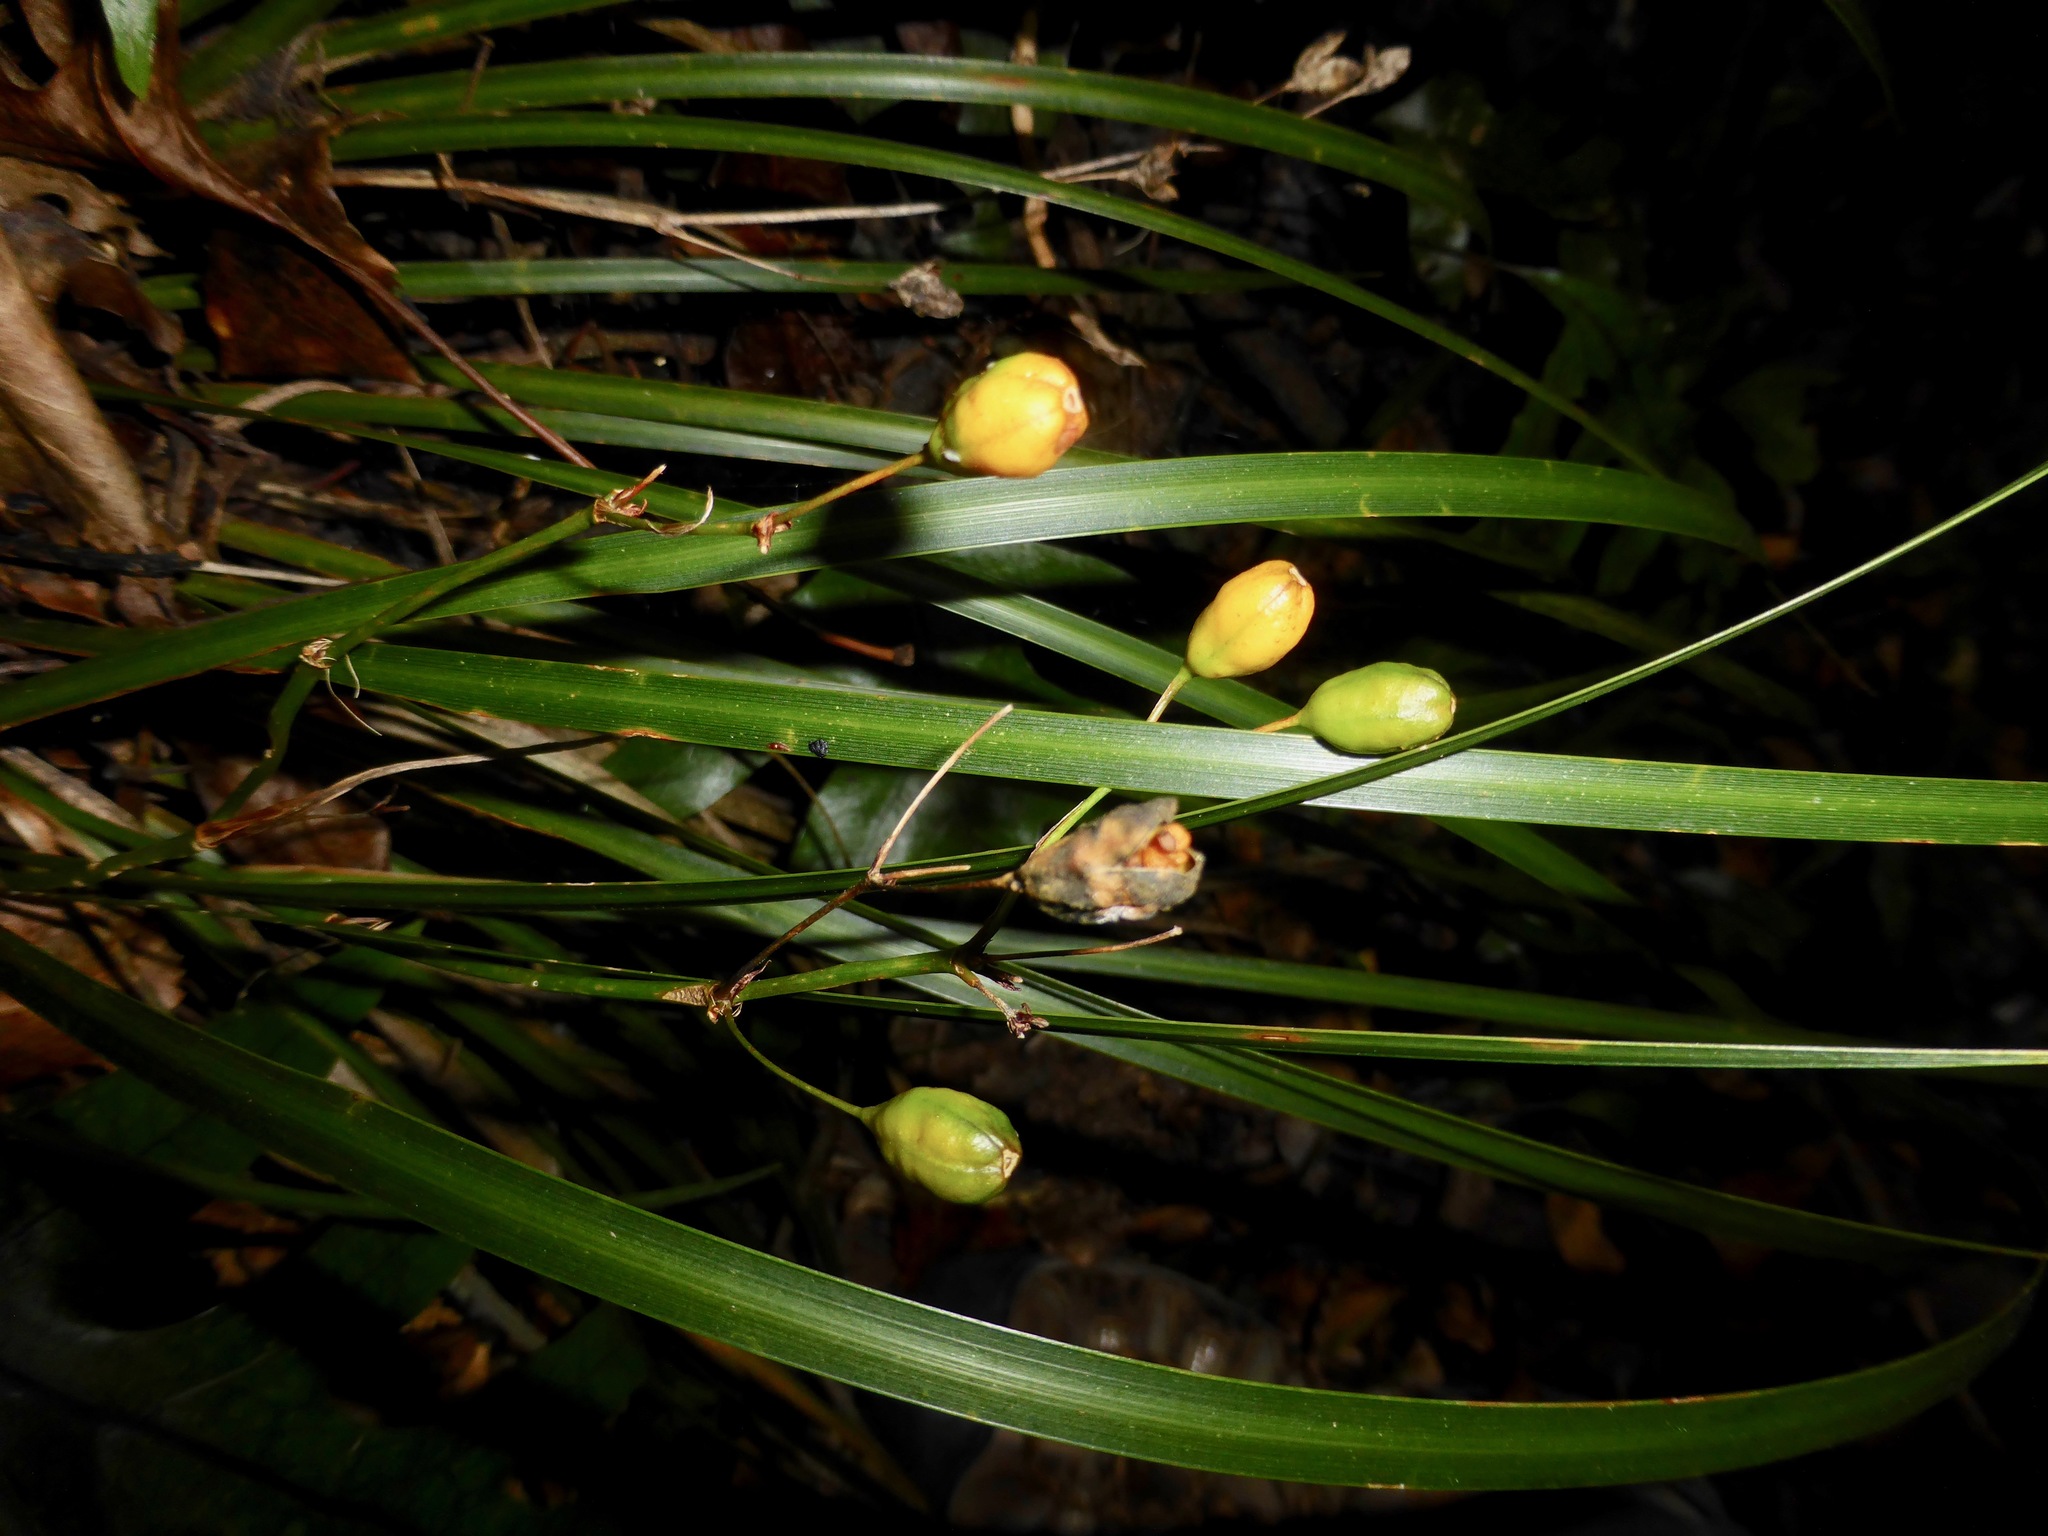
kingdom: Plantae
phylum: Tracheophyta
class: Liliopsida
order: Asparagales
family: Iridaceae
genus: Libertia
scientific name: Libertia ixioides
